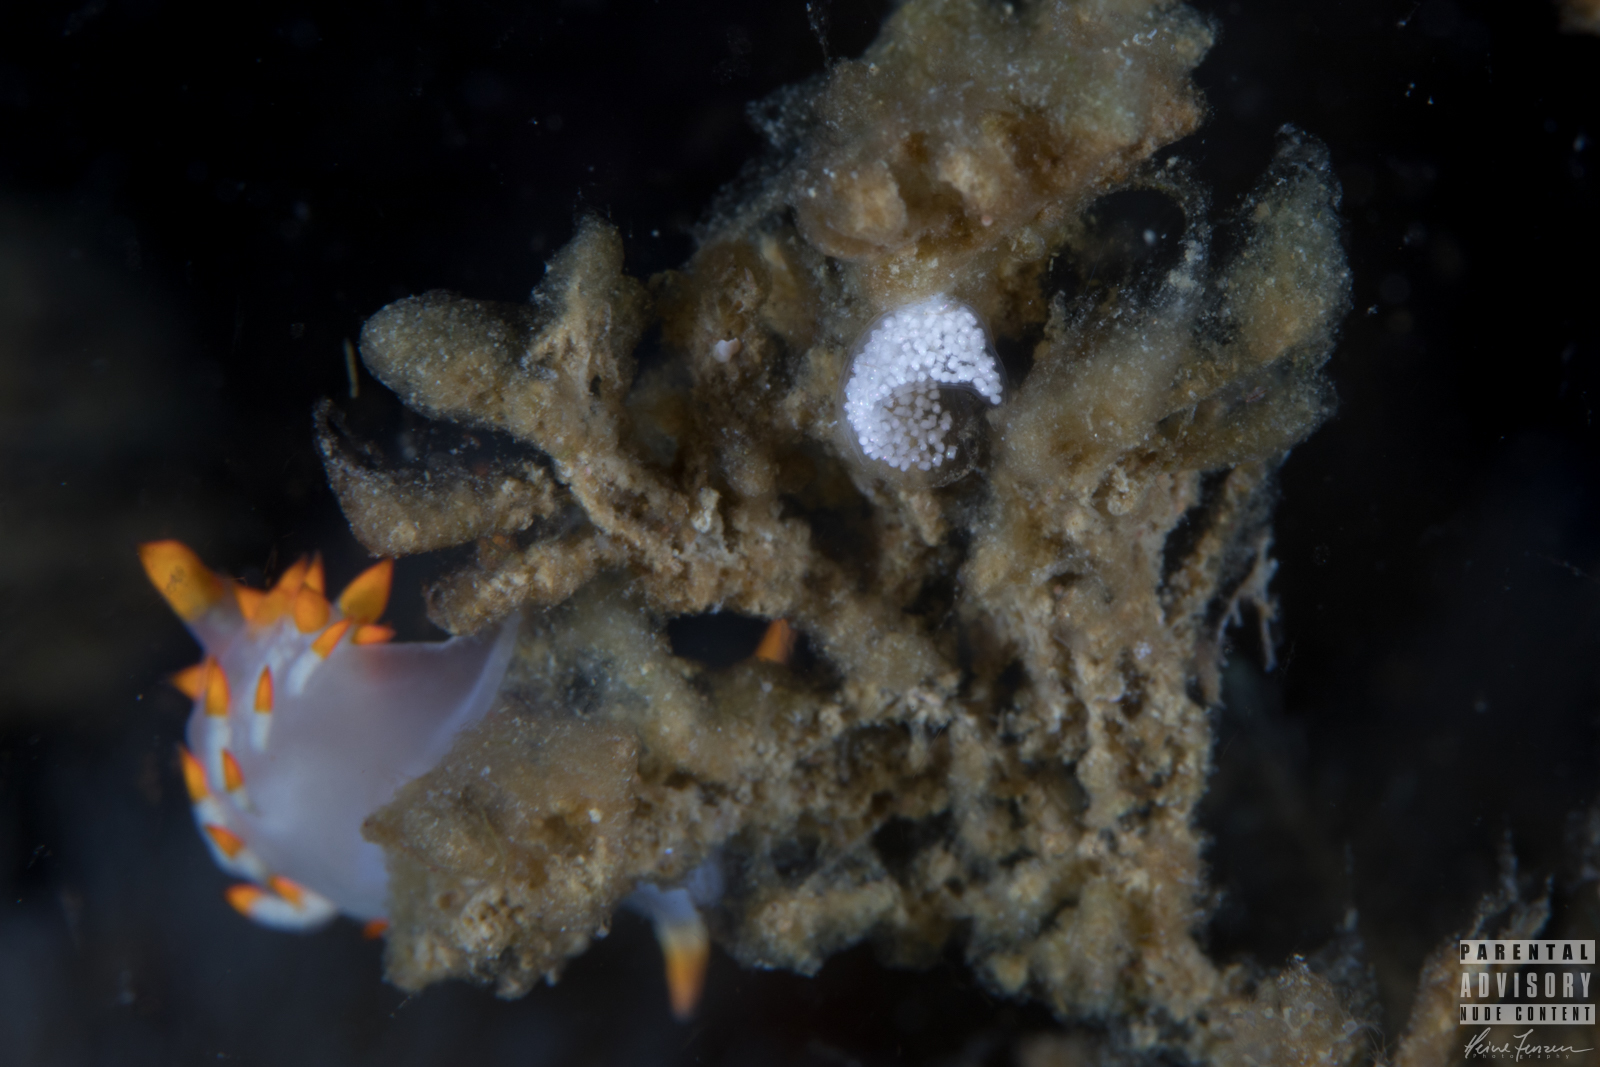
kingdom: Animalia
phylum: Mollusca
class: Gastropoda
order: Nudibranchia
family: Eubranchidae
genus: Amphorina
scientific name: Amphorina farrani
